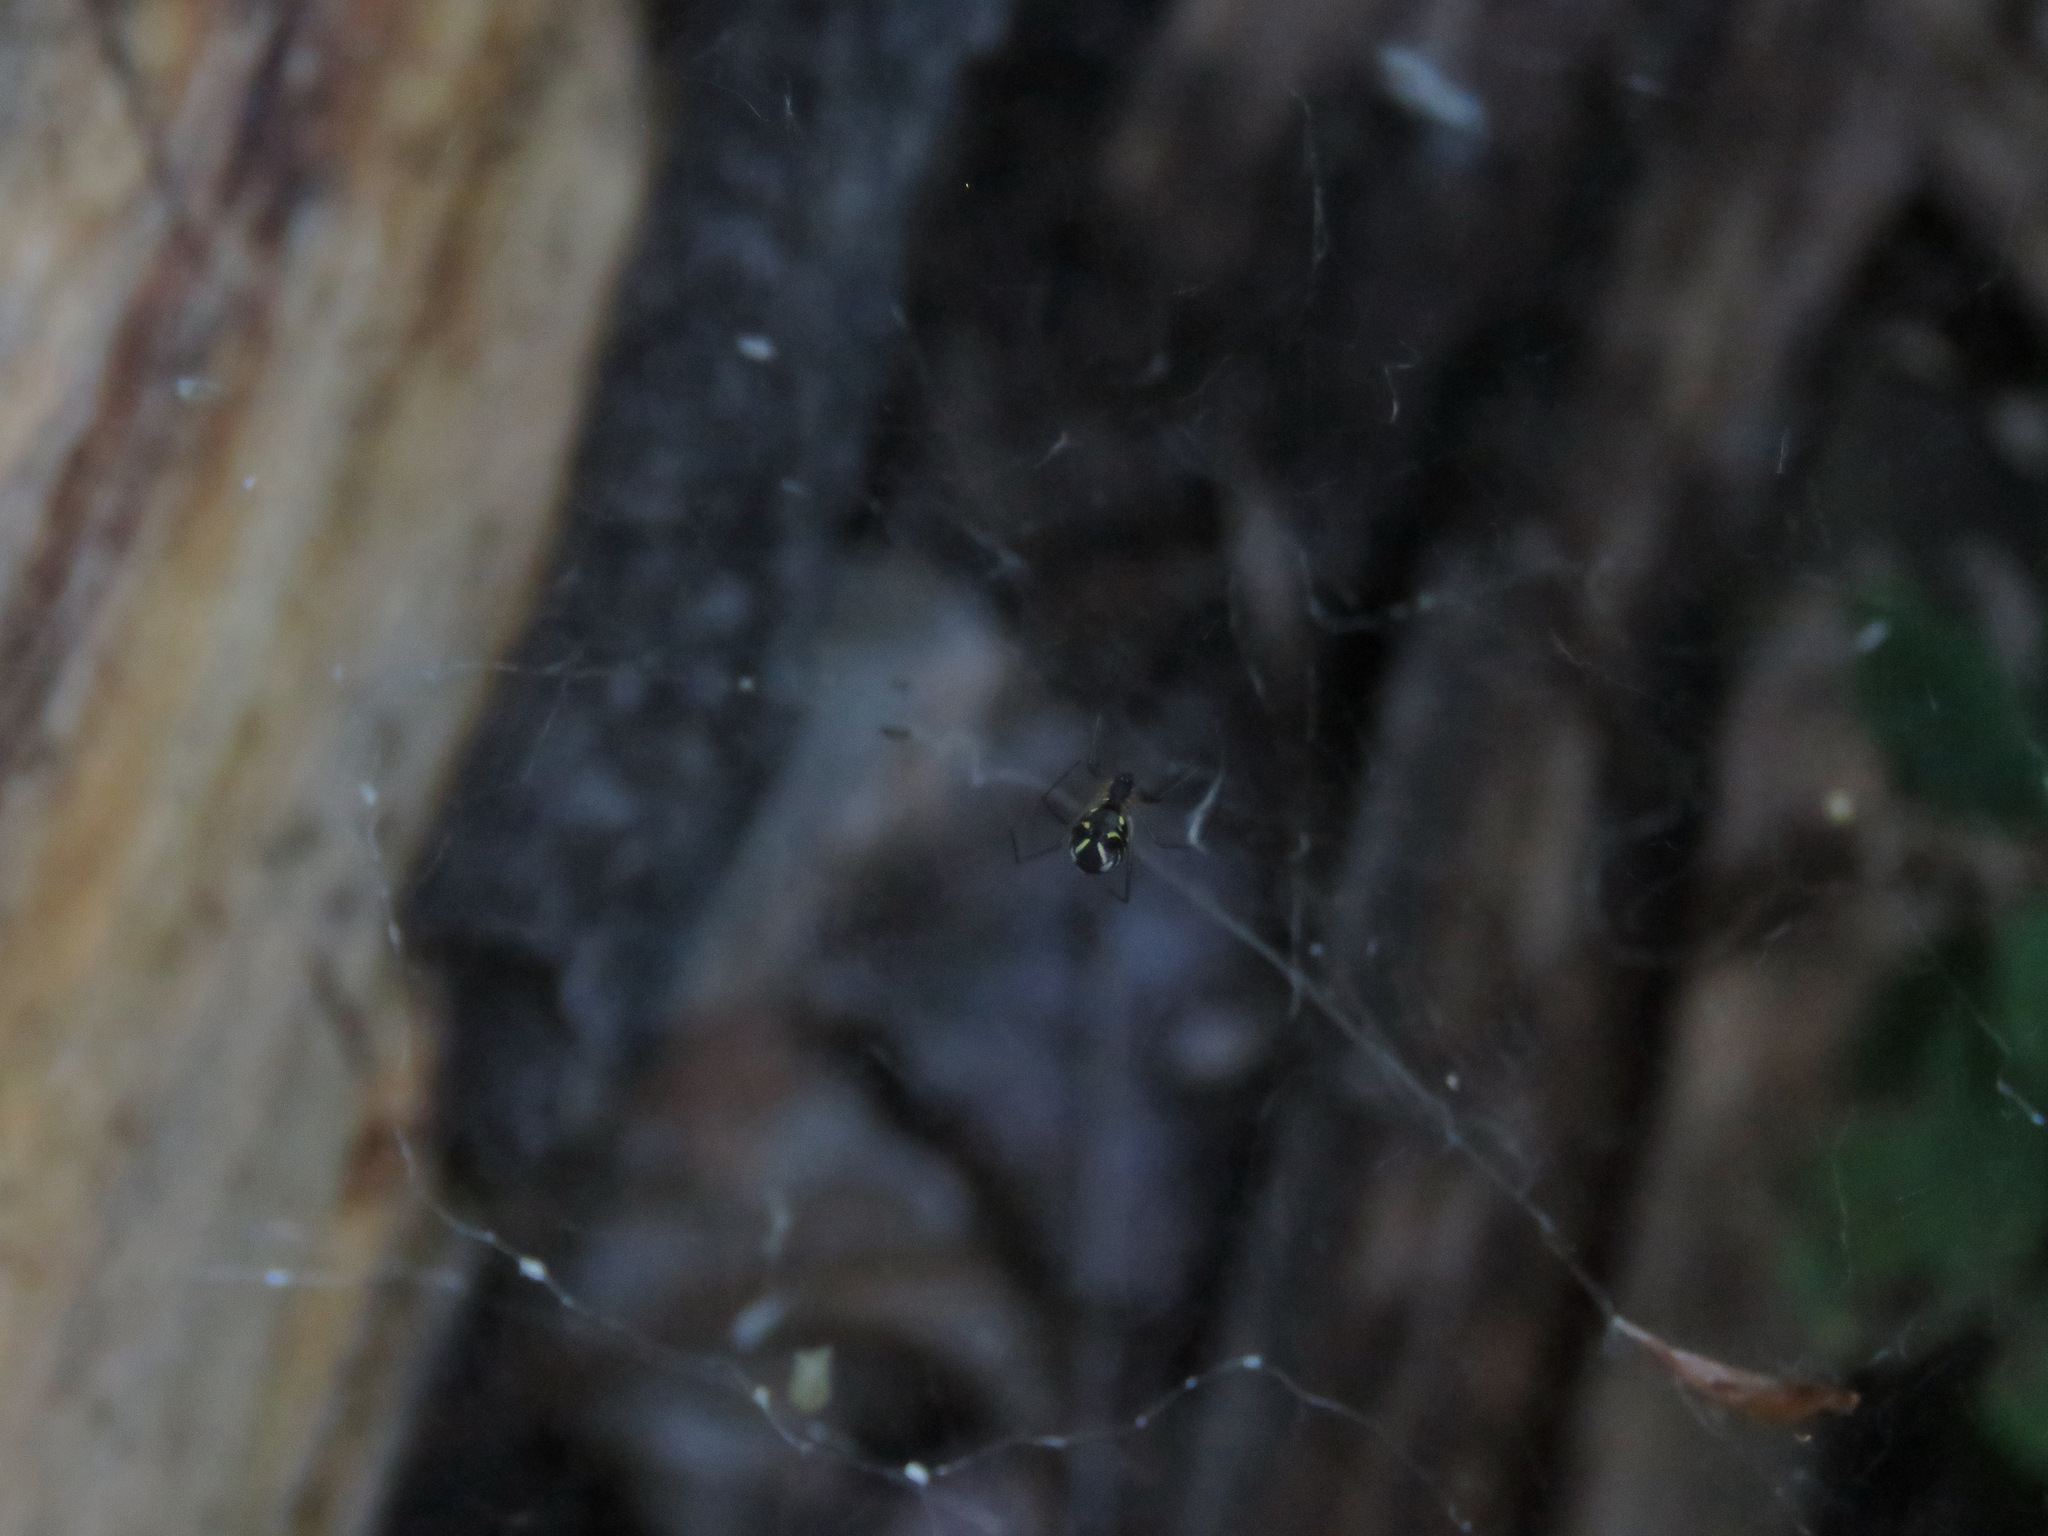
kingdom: Animalia
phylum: Arthropoda
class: Arachnida
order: Araneae
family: Linyphiidae
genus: Neriene
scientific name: Neriene radiata
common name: Filmy dome spider
